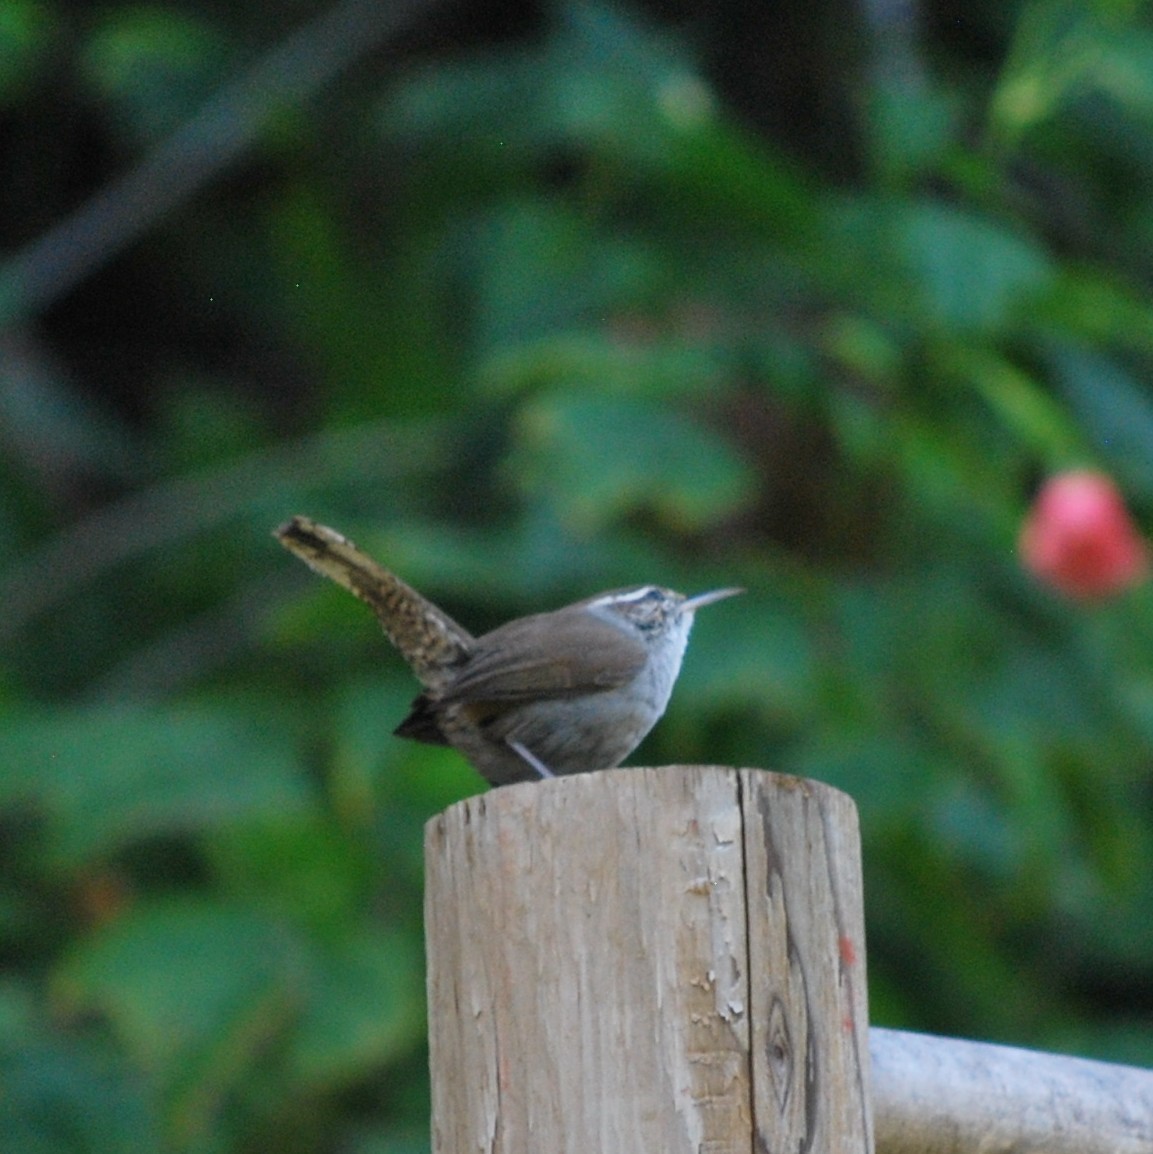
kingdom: Animalia
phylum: Chordata
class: Aves
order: Passeriformes
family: Troglodytidae
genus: Thryomanes
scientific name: Thryomanes bewickii
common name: Bewick's wren
